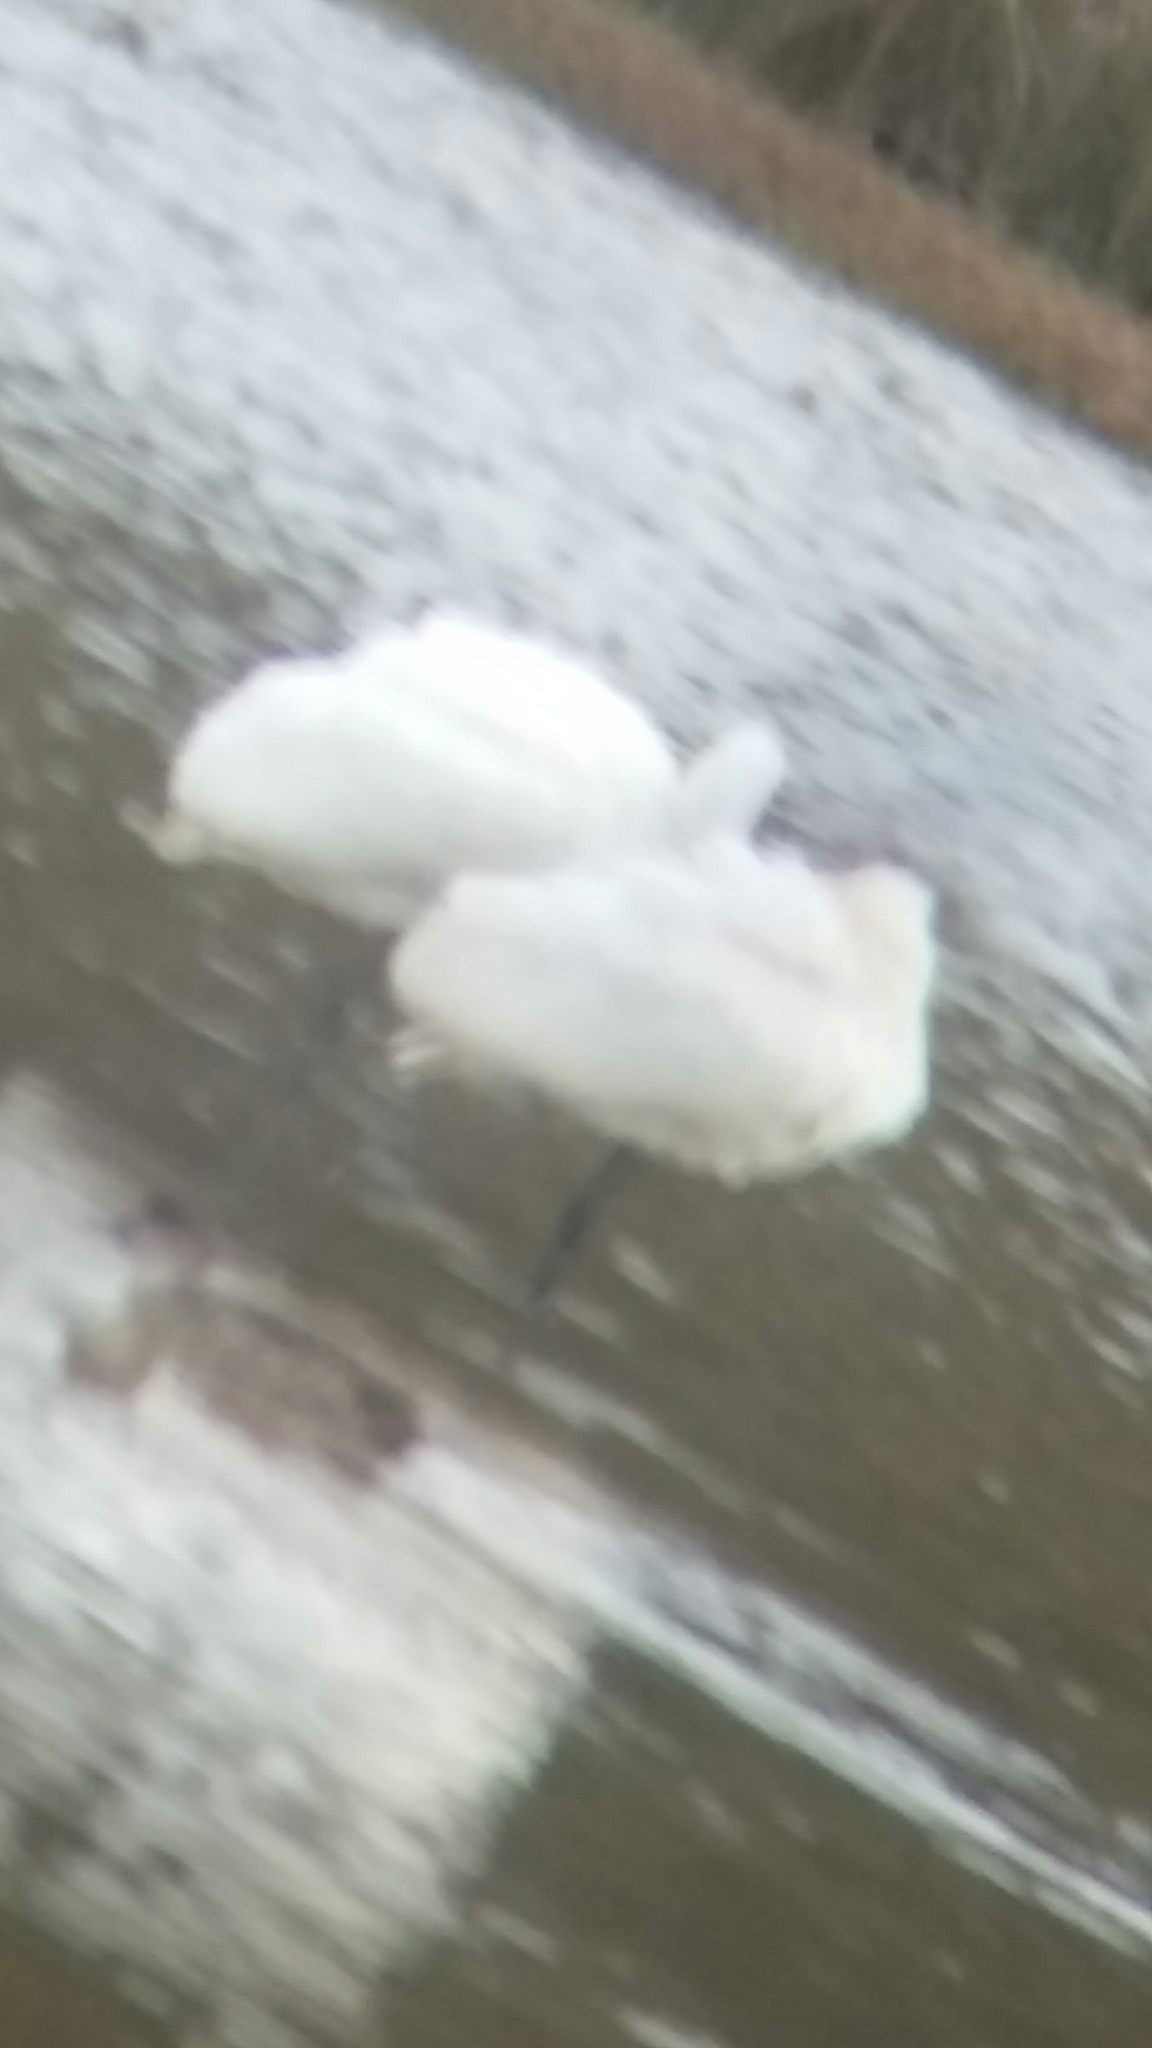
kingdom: Animalia
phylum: Chordata
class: Aves
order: Pelecaniformes
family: Threskiornithidae
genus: Platalea
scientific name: Platalea regia
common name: Royal spoonbill
